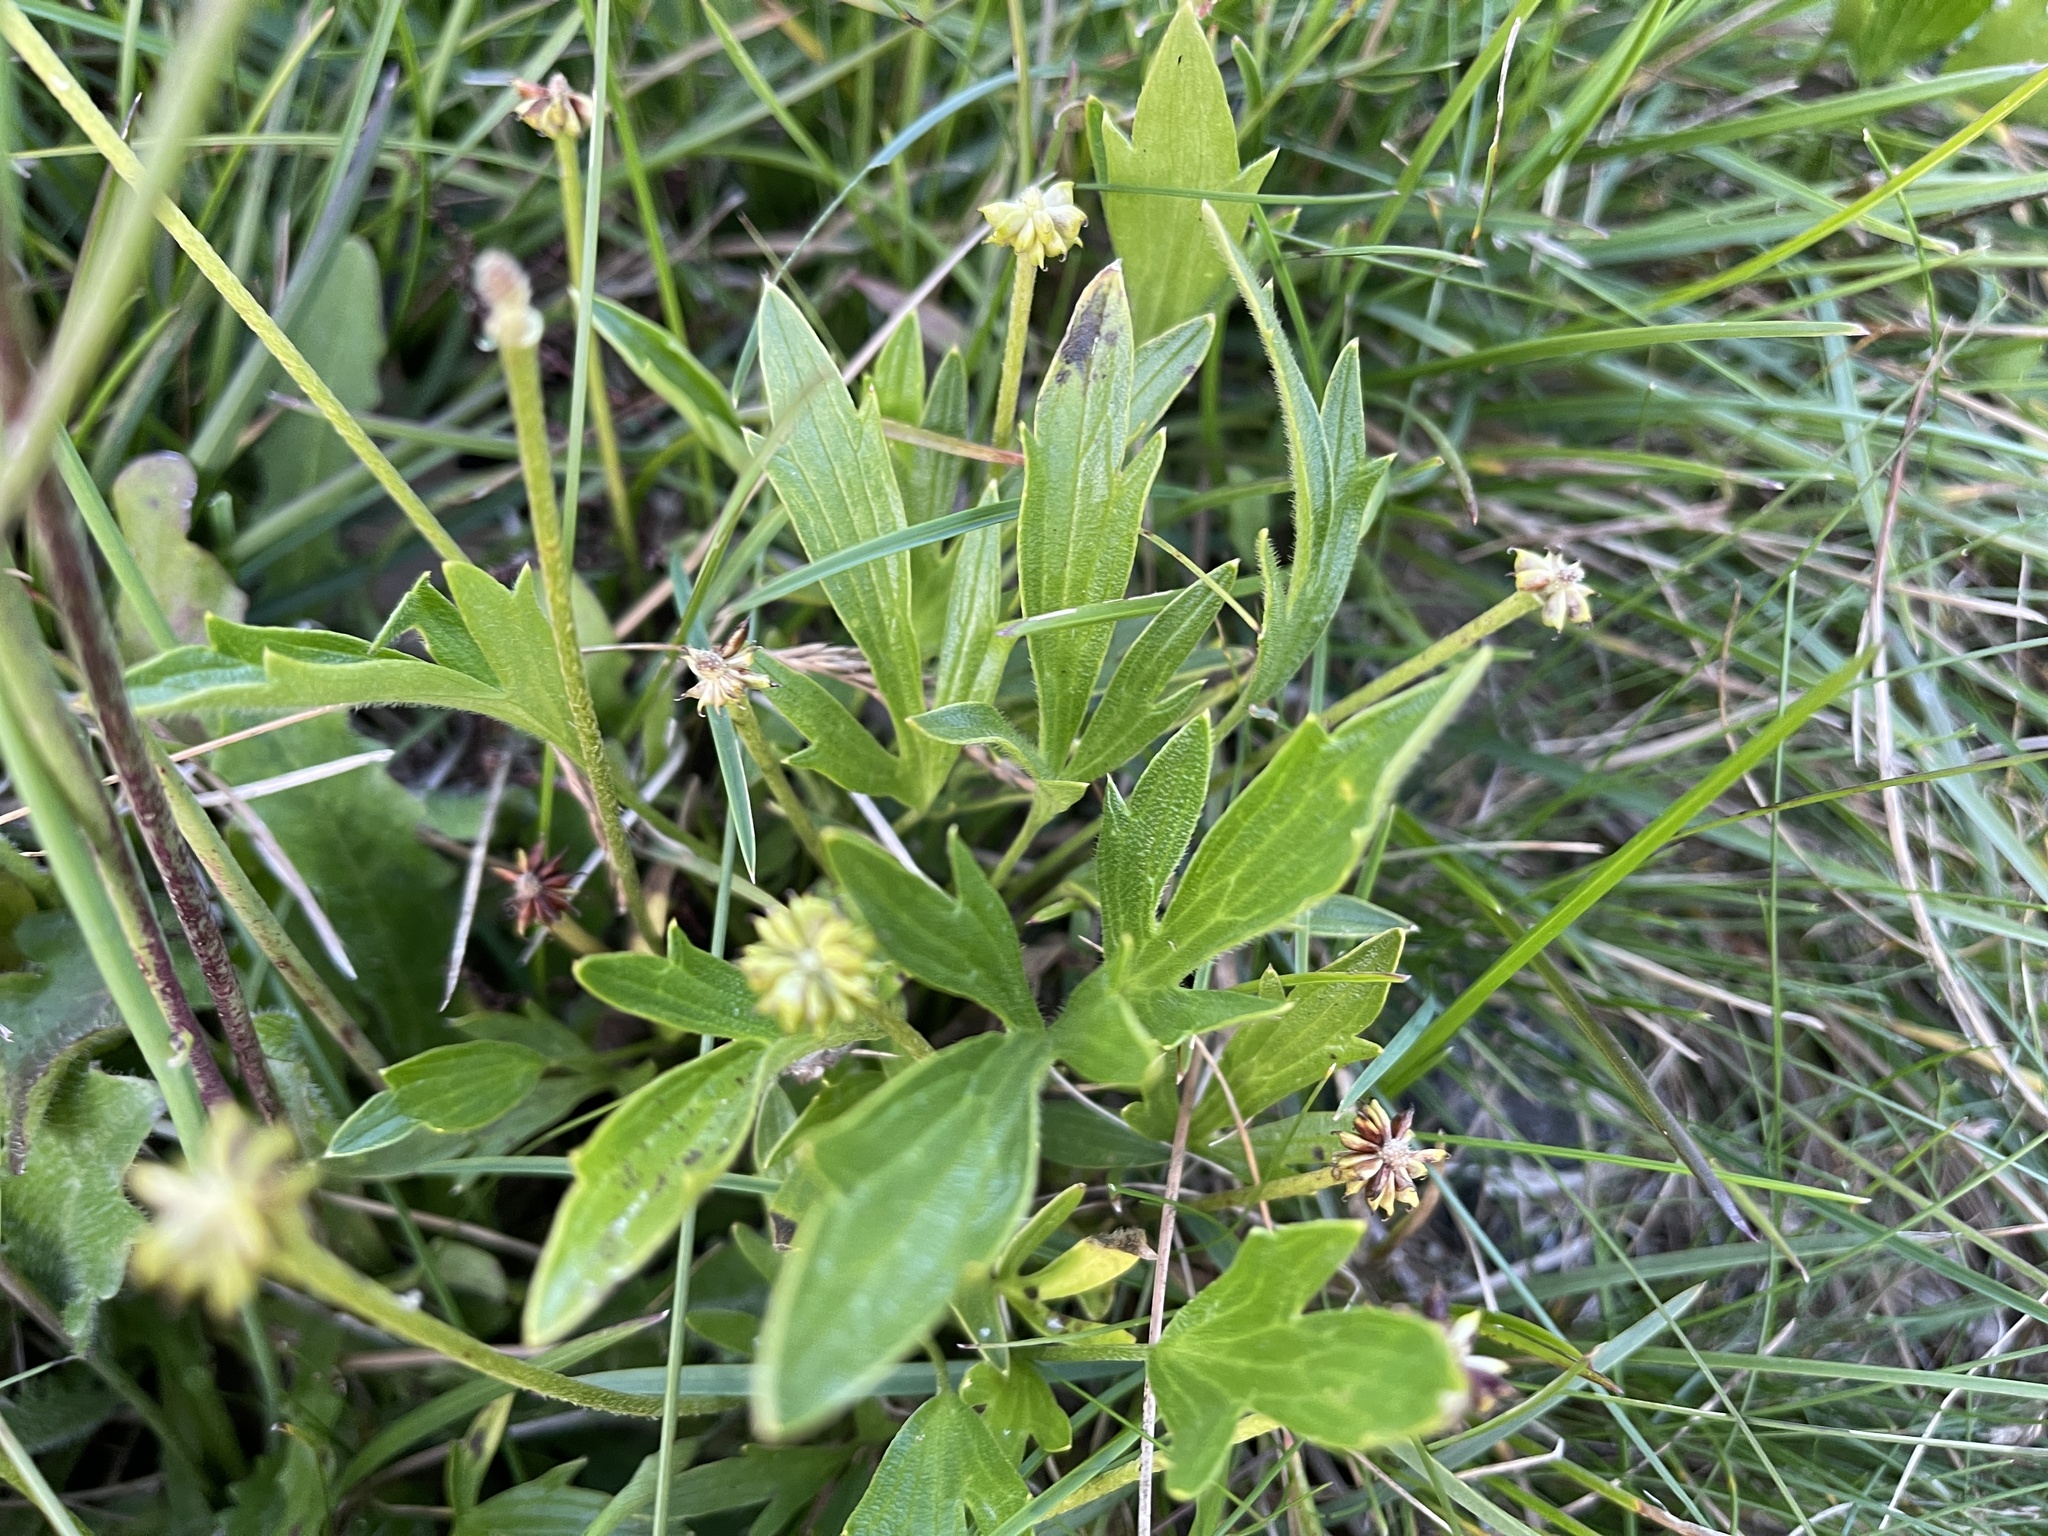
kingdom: Plantae
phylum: Tracheophyta
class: Magnoliopsida
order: Ranunculales
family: Ranunculaceae
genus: Ranunculus
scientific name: Ranunculus victoriensis
